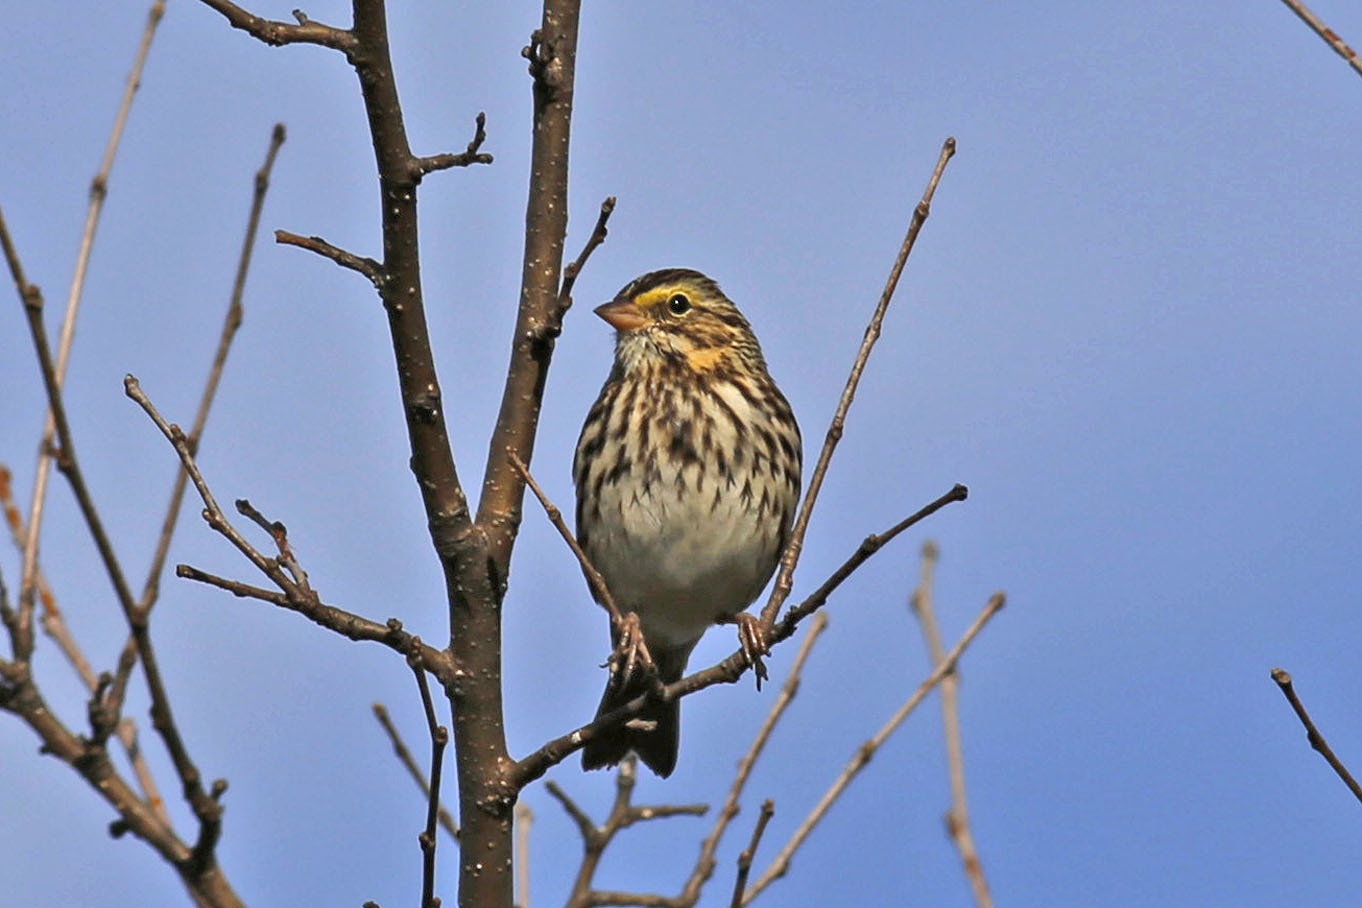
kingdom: Animalia
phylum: Chordata
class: Aves
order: Passeriformes
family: Passerellidae
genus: Passerculus
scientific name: Passerculus sandwichensis
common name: Savannah sparrow
